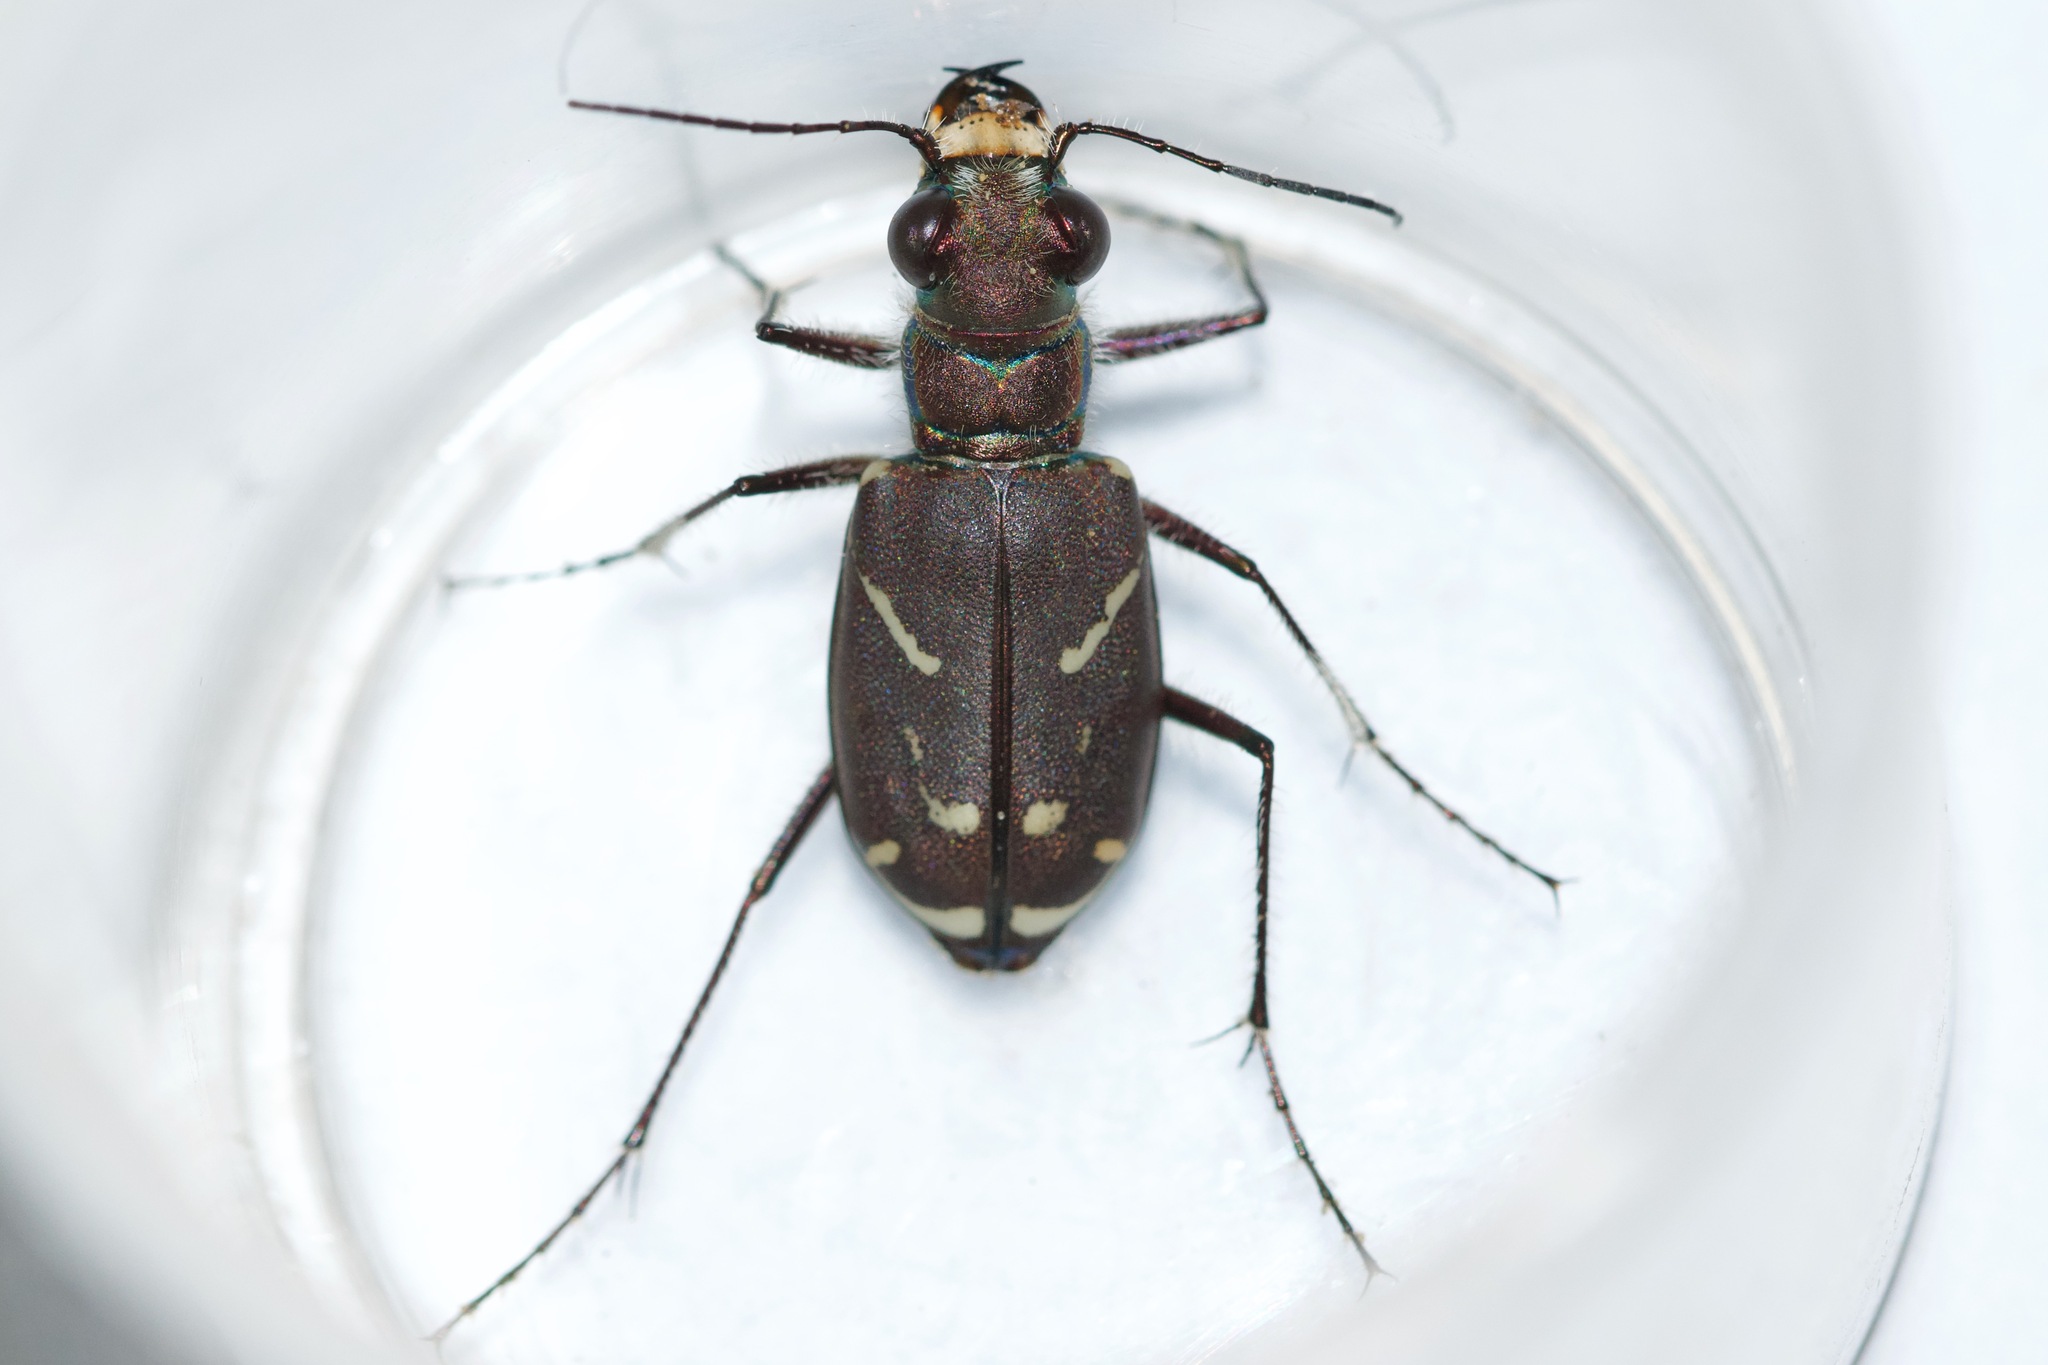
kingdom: Animalia
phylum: Arthropoda
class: Insecta
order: Coleoptera
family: Carabidae
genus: Cicindela
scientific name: Cicindela tranquebarica
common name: Oblique-lined tiger beetle
